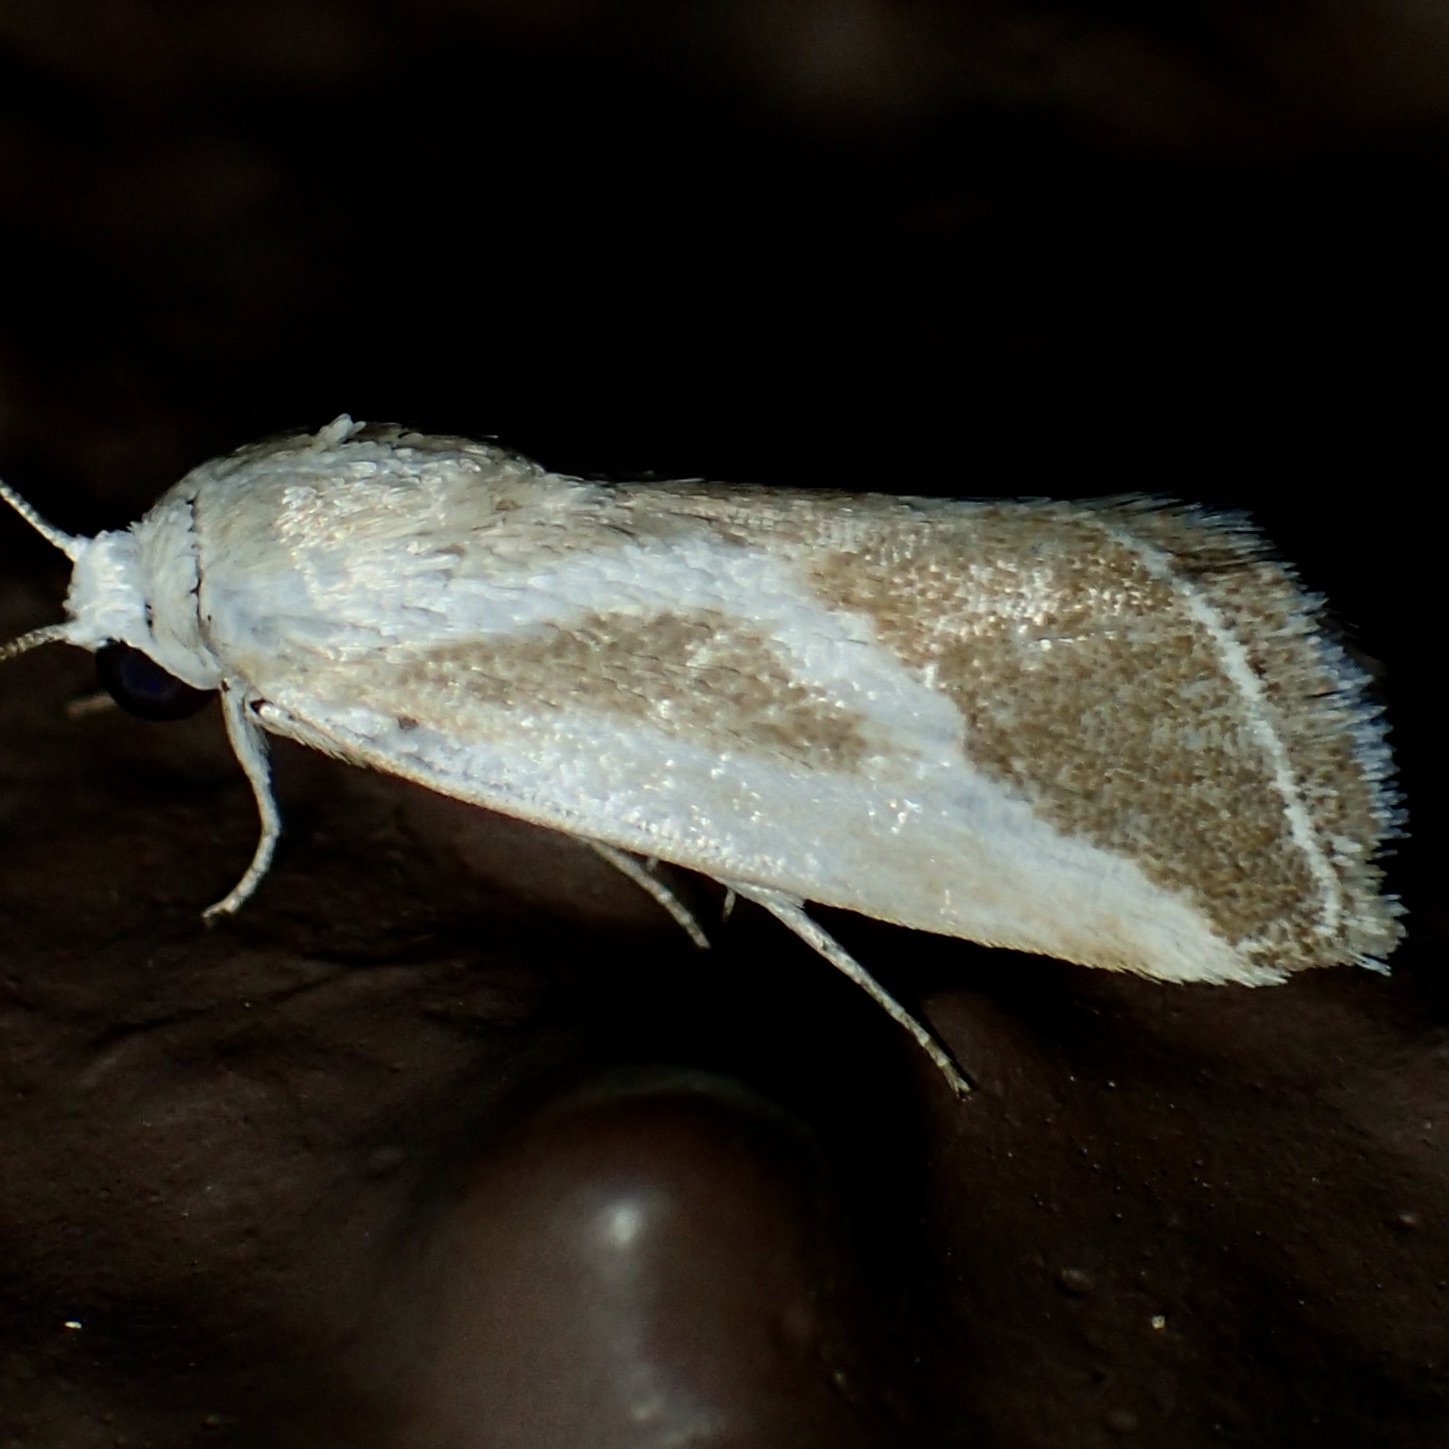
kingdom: Animalia
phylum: Arthropoda
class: Insecta
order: Lepidoptera
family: Noctuidae
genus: Acontia
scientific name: Acontia alata
